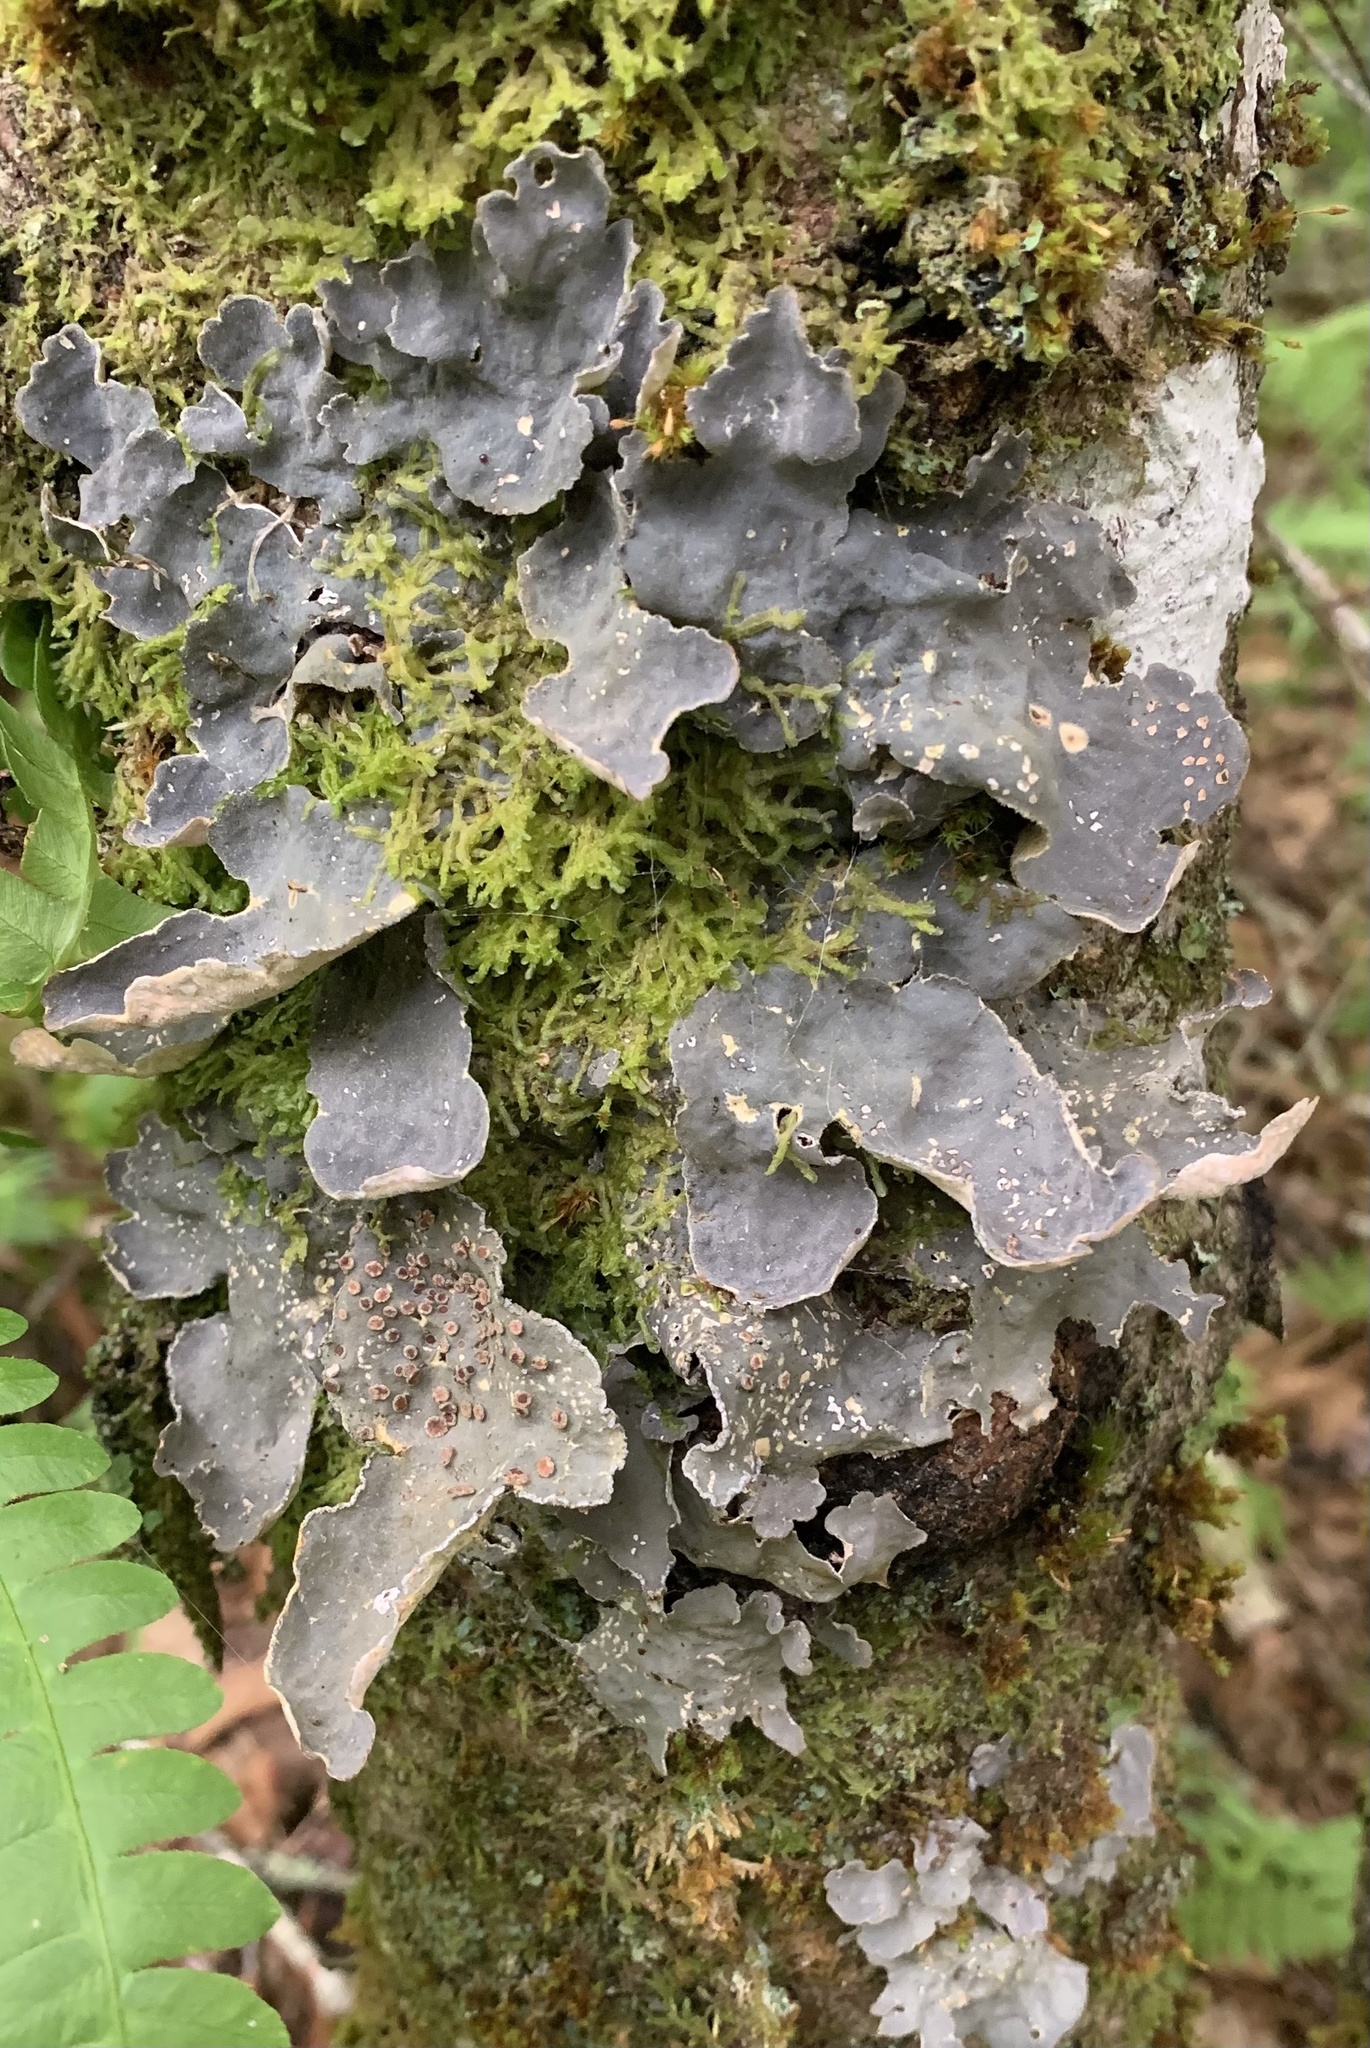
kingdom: Fungi
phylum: Ascomycota
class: Lecanoromycetes
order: Peltigerales
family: Lobariaceae
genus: Lobarina
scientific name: Lobarina scrobiculata
